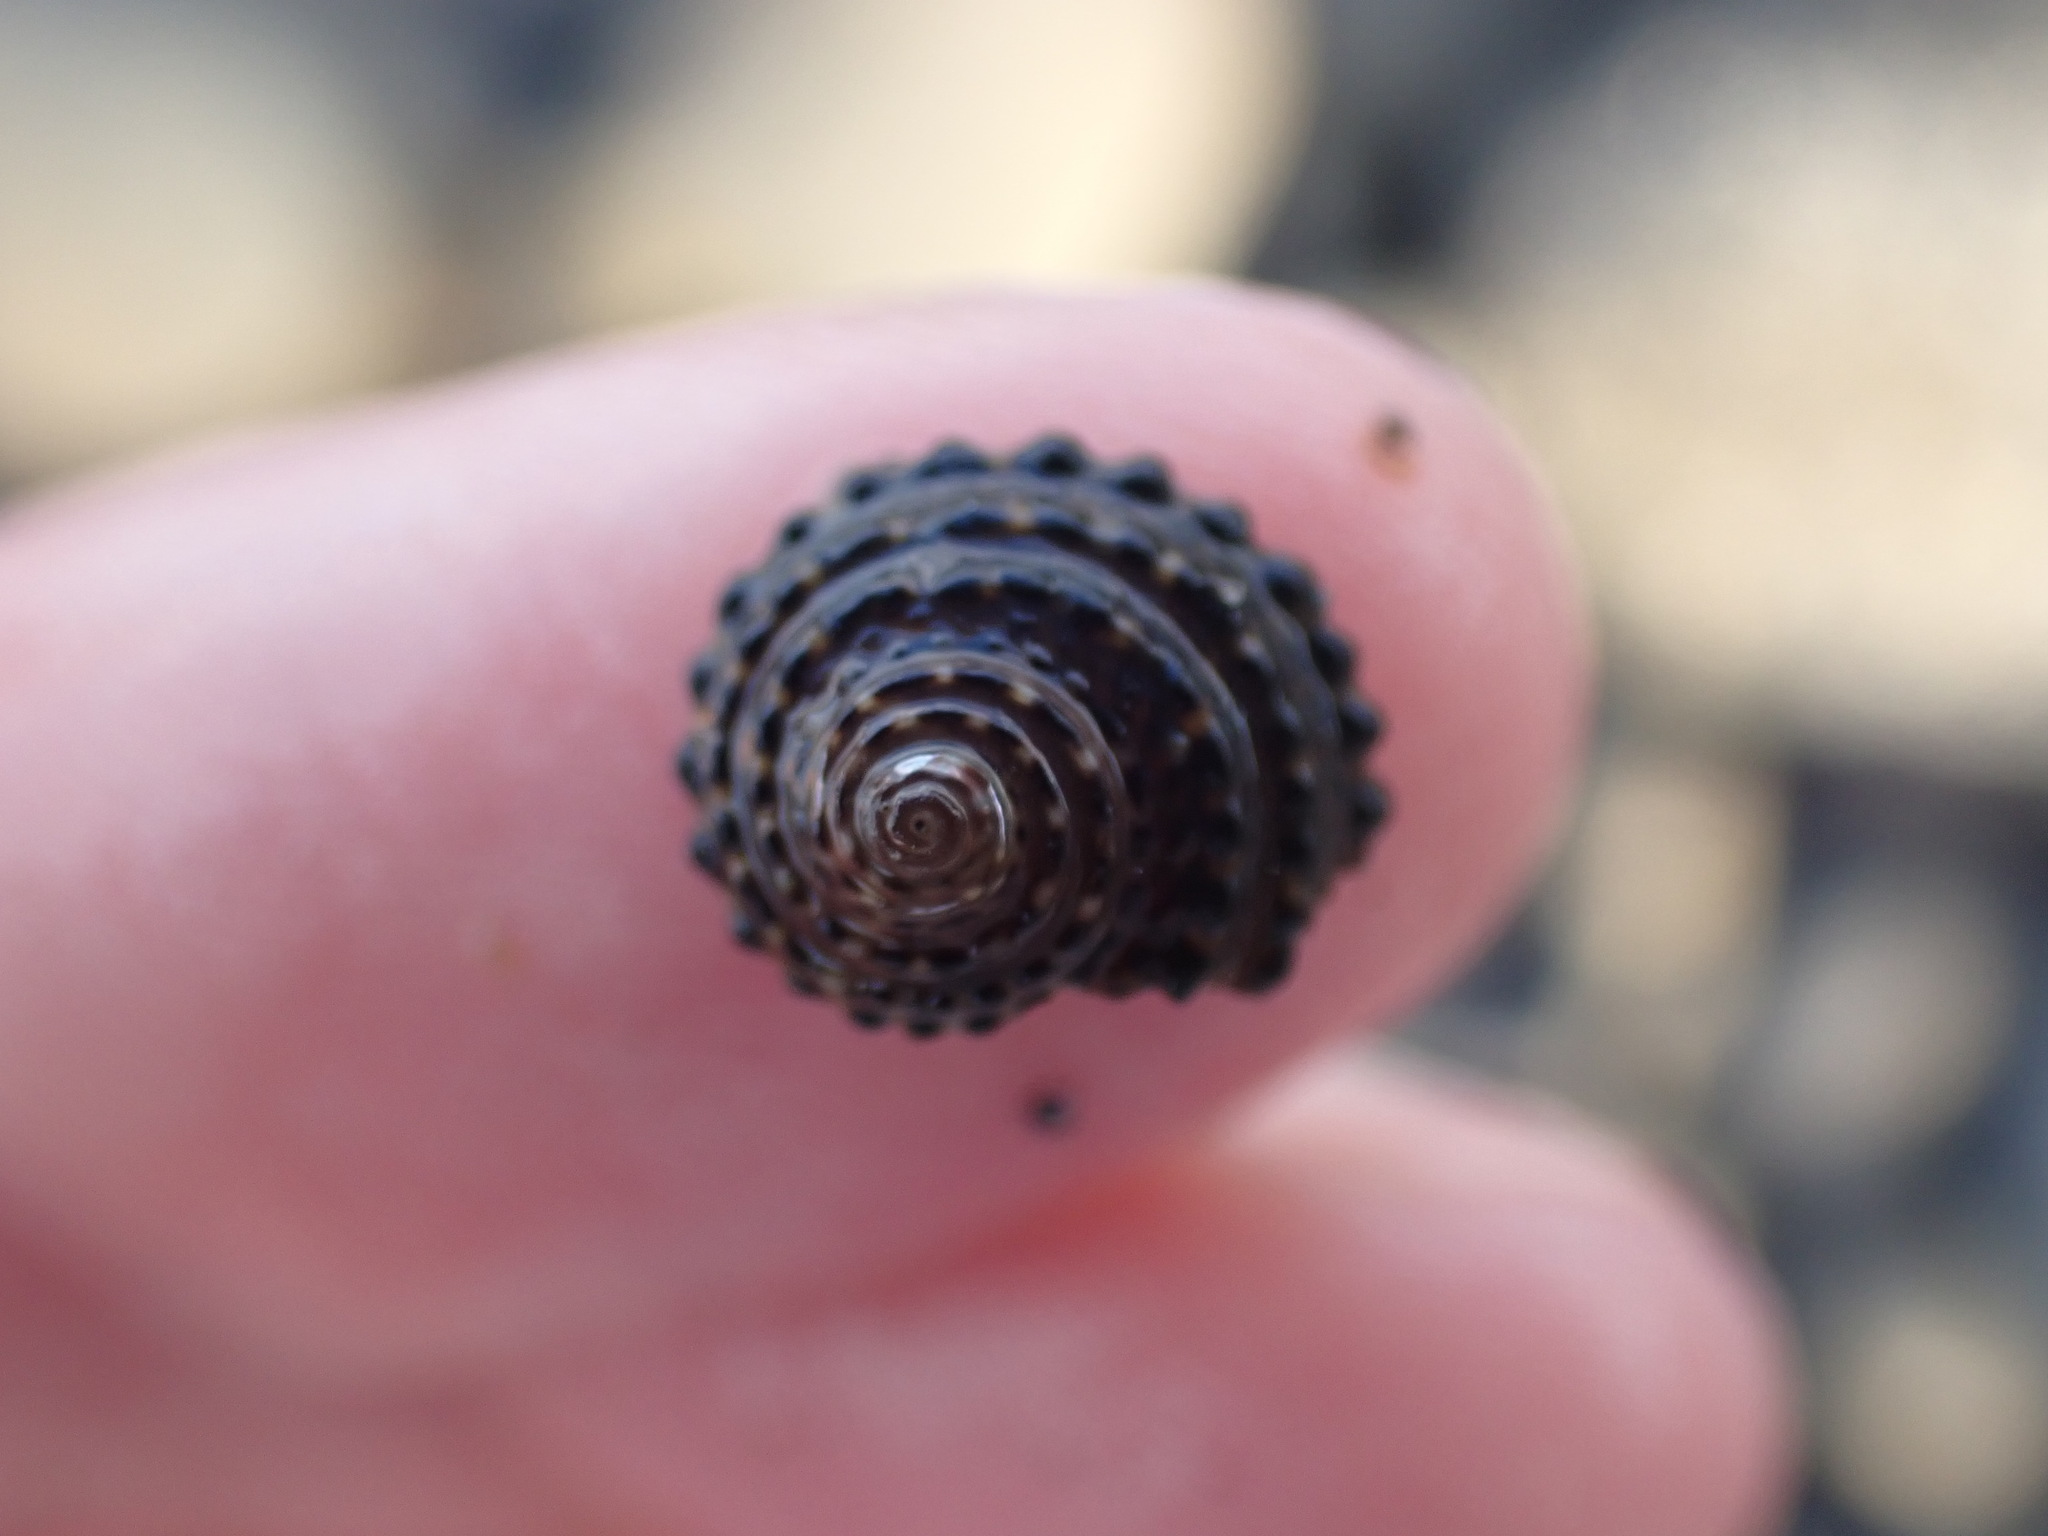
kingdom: Animalia
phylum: Mollusca
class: Gastropoda
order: Trochida
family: Trochidae
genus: Diloma
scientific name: Diloma bicanaliculatum
